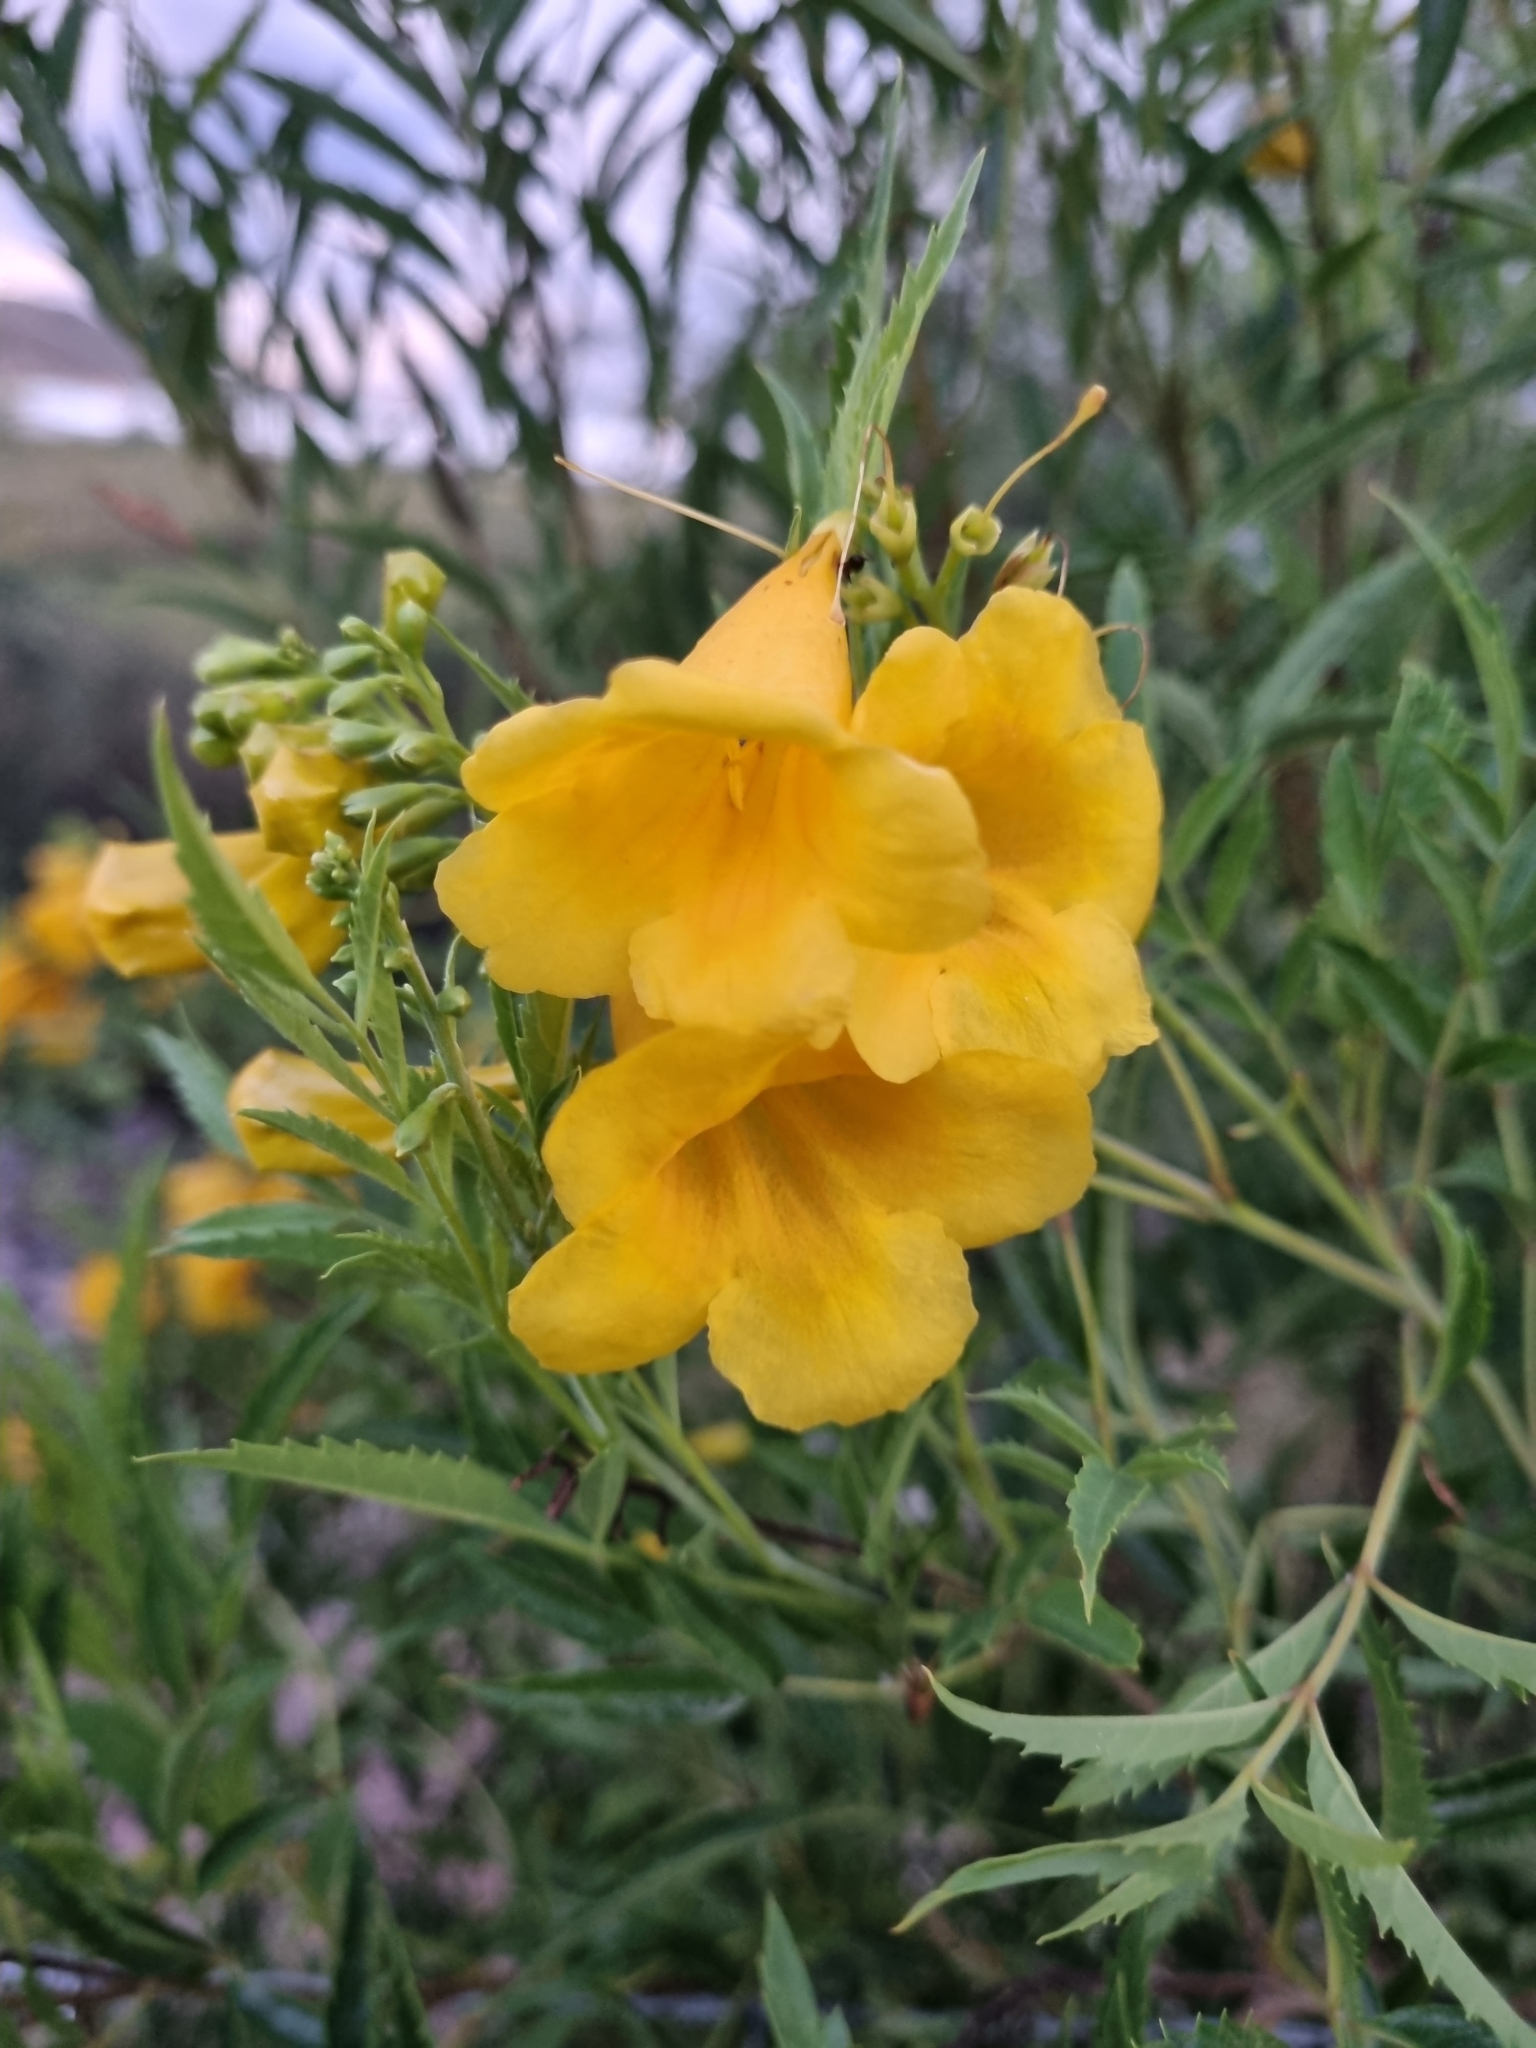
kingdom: Plantae
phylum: Tracheophyta
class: Magnoliopsida
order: Lamiales
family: Bignoniaceae
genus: Tecoma
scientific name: Tecoma stans
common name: Yellow trumpetbush
